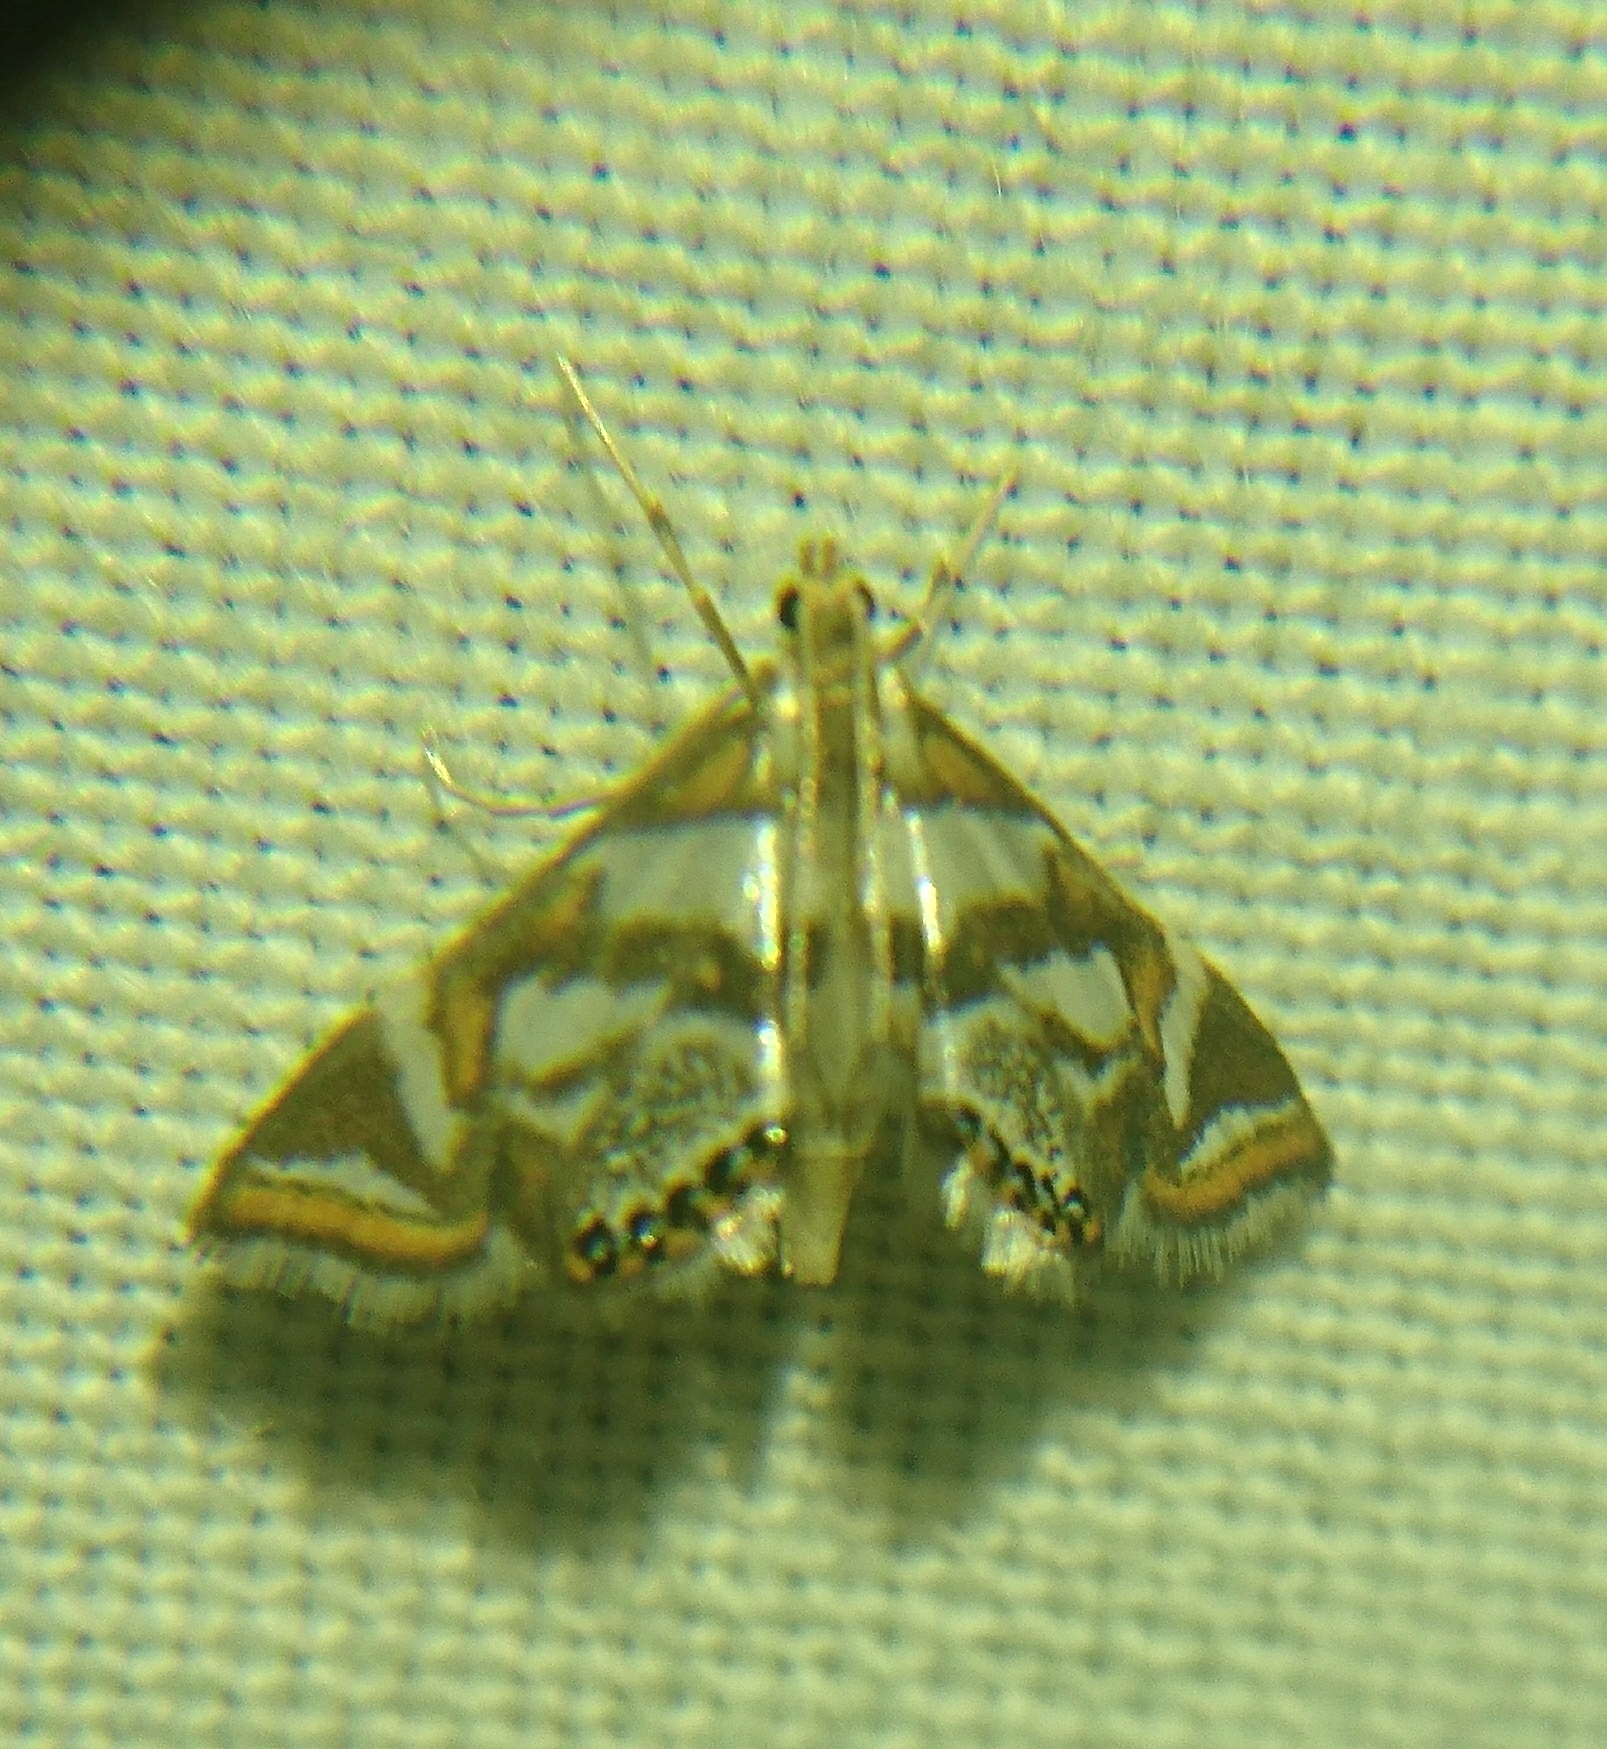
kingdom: Animalia
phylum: Arthropoda
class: Insecta
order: Lepidoptera
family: Crambidae
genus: Chrysendeton
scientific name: Chrysendeton medicinalis
